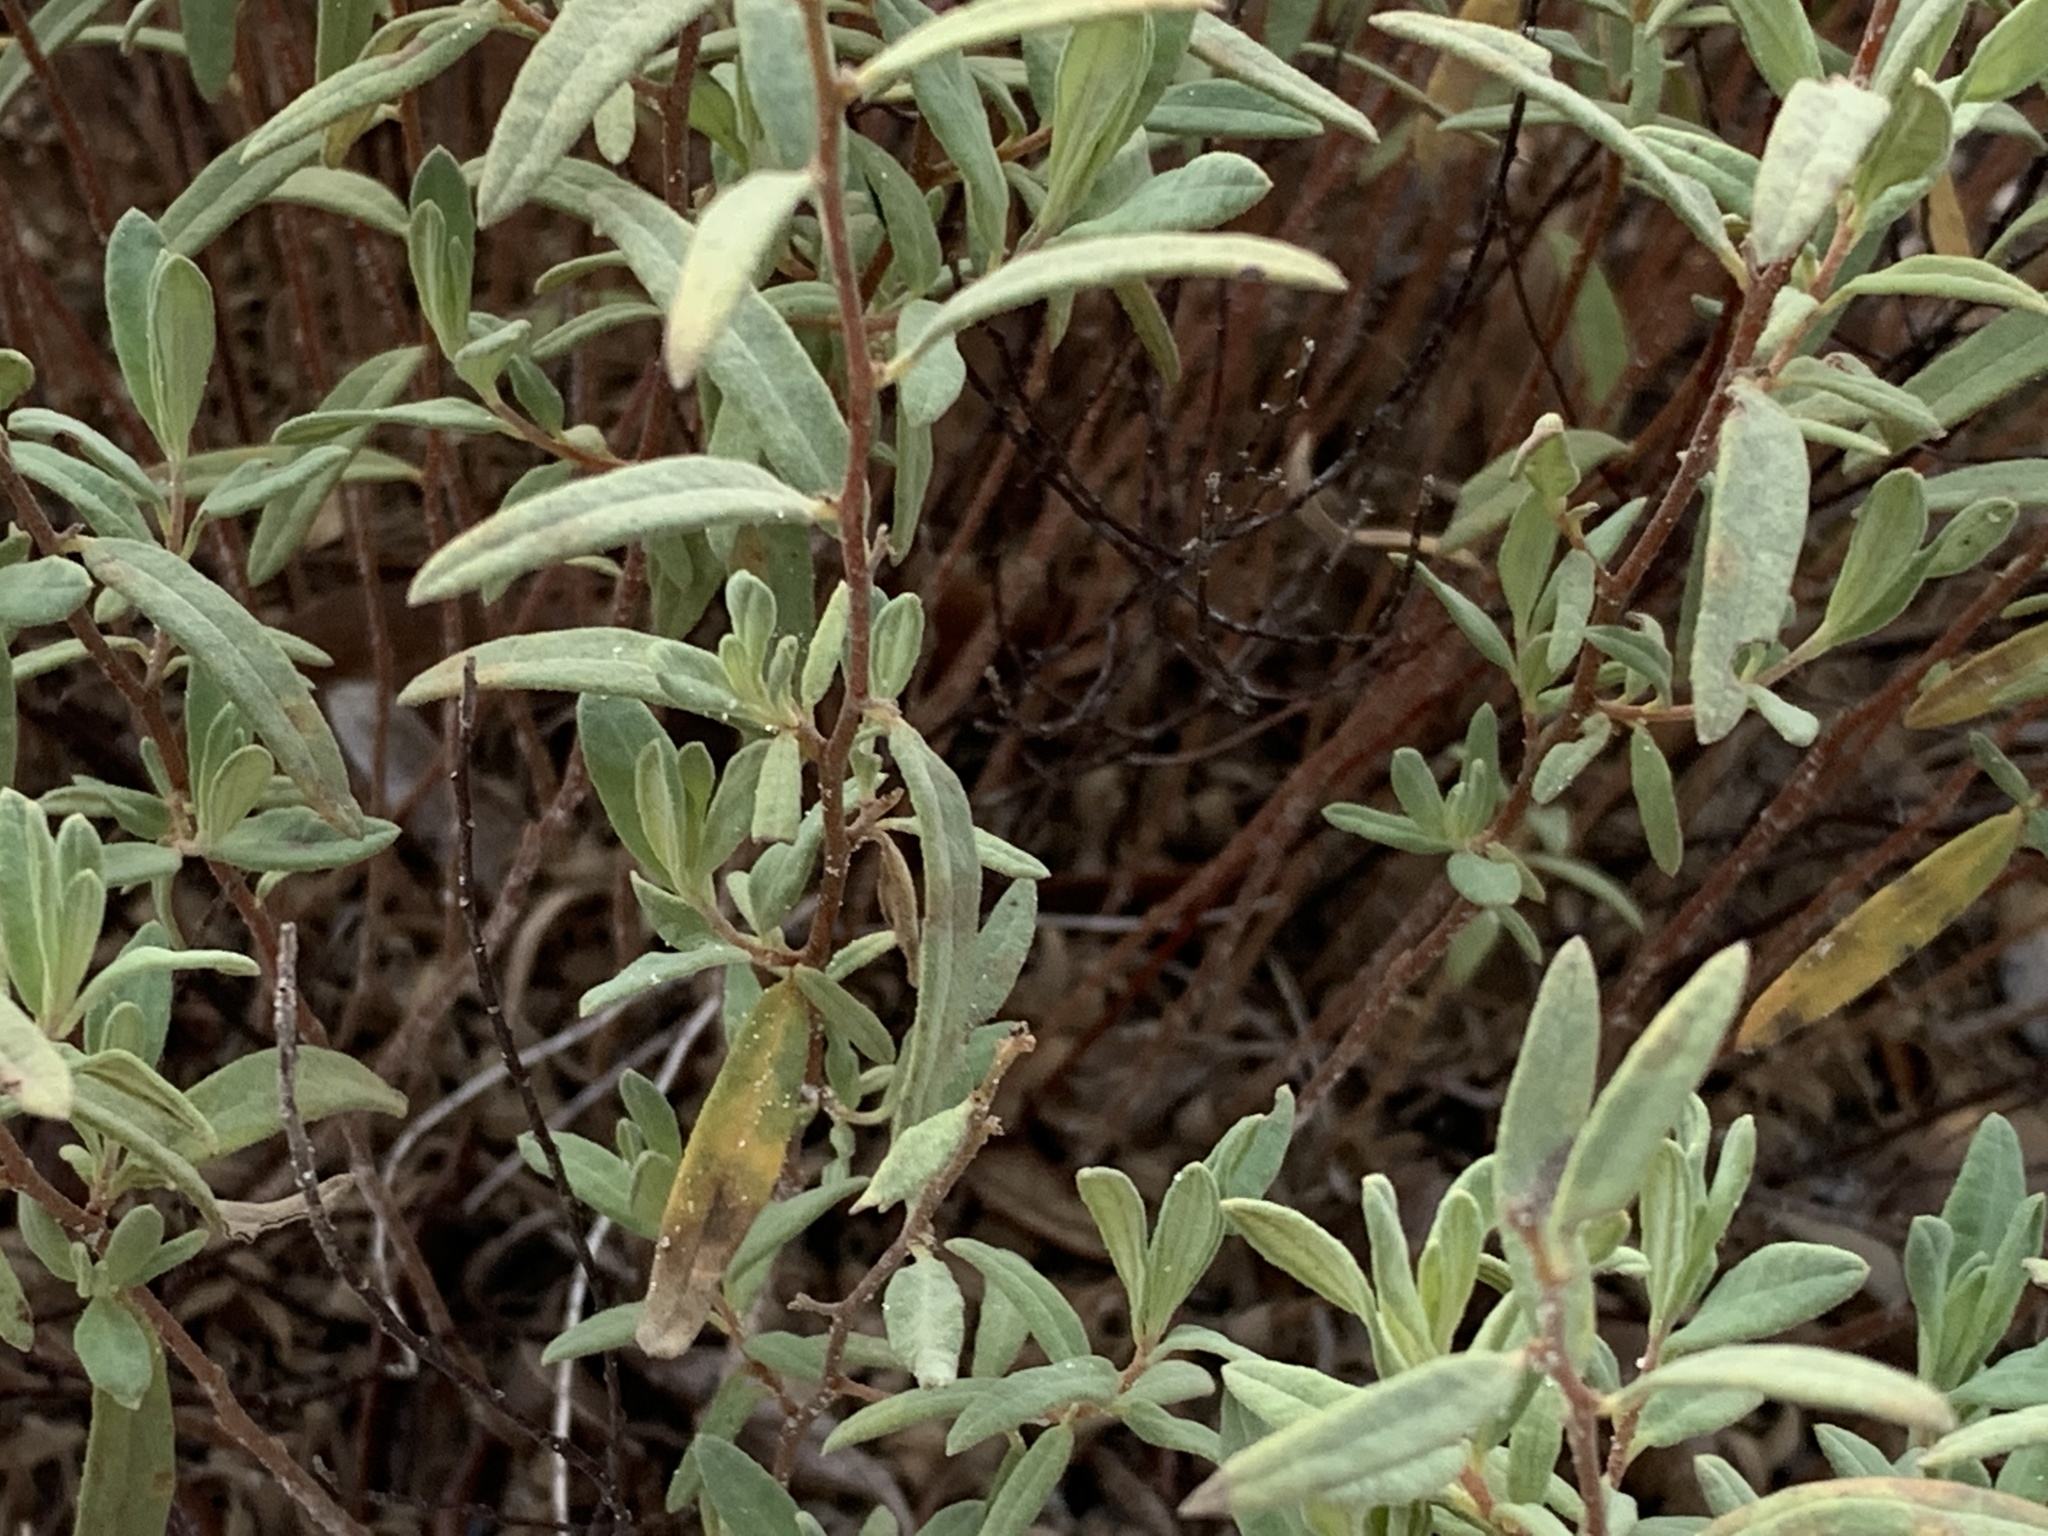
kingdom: Plantae
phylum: Tracheophyta
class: Magnoliopsida
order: Malvales
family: Cistaceae
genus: Crocanthemum
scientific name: Crocanthemum nashii
